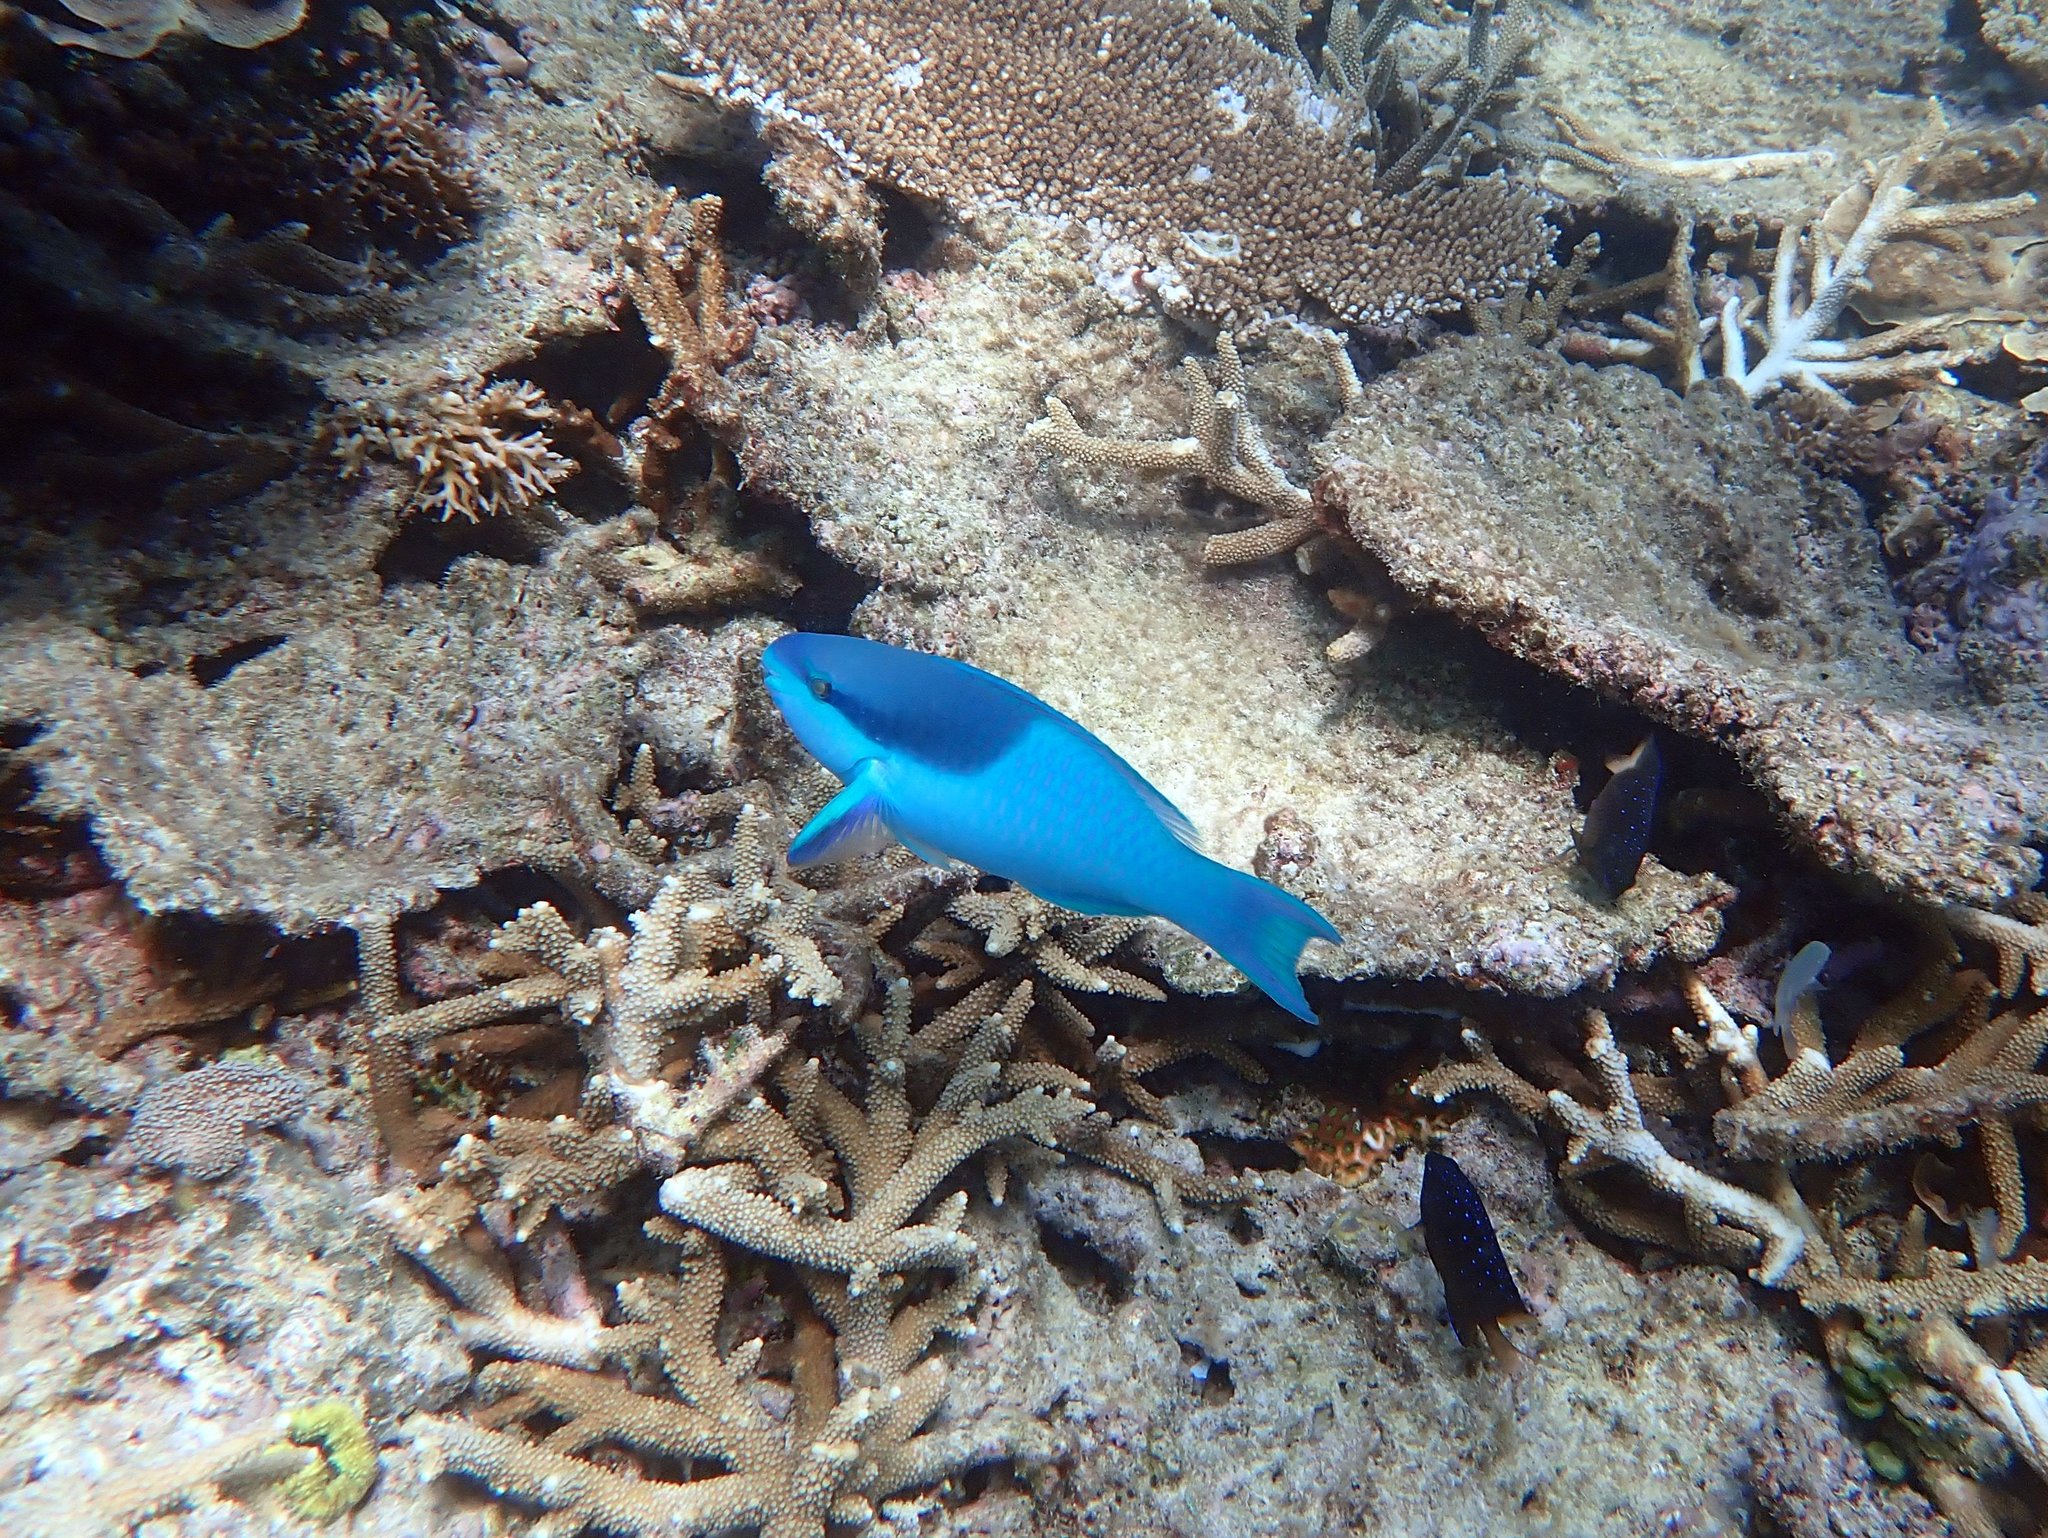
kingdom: Animalia
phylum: Chordata
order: Perciformes
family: Scaridae
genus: Scarus
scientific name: Scarus oviceps
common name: Blue parrotfish
